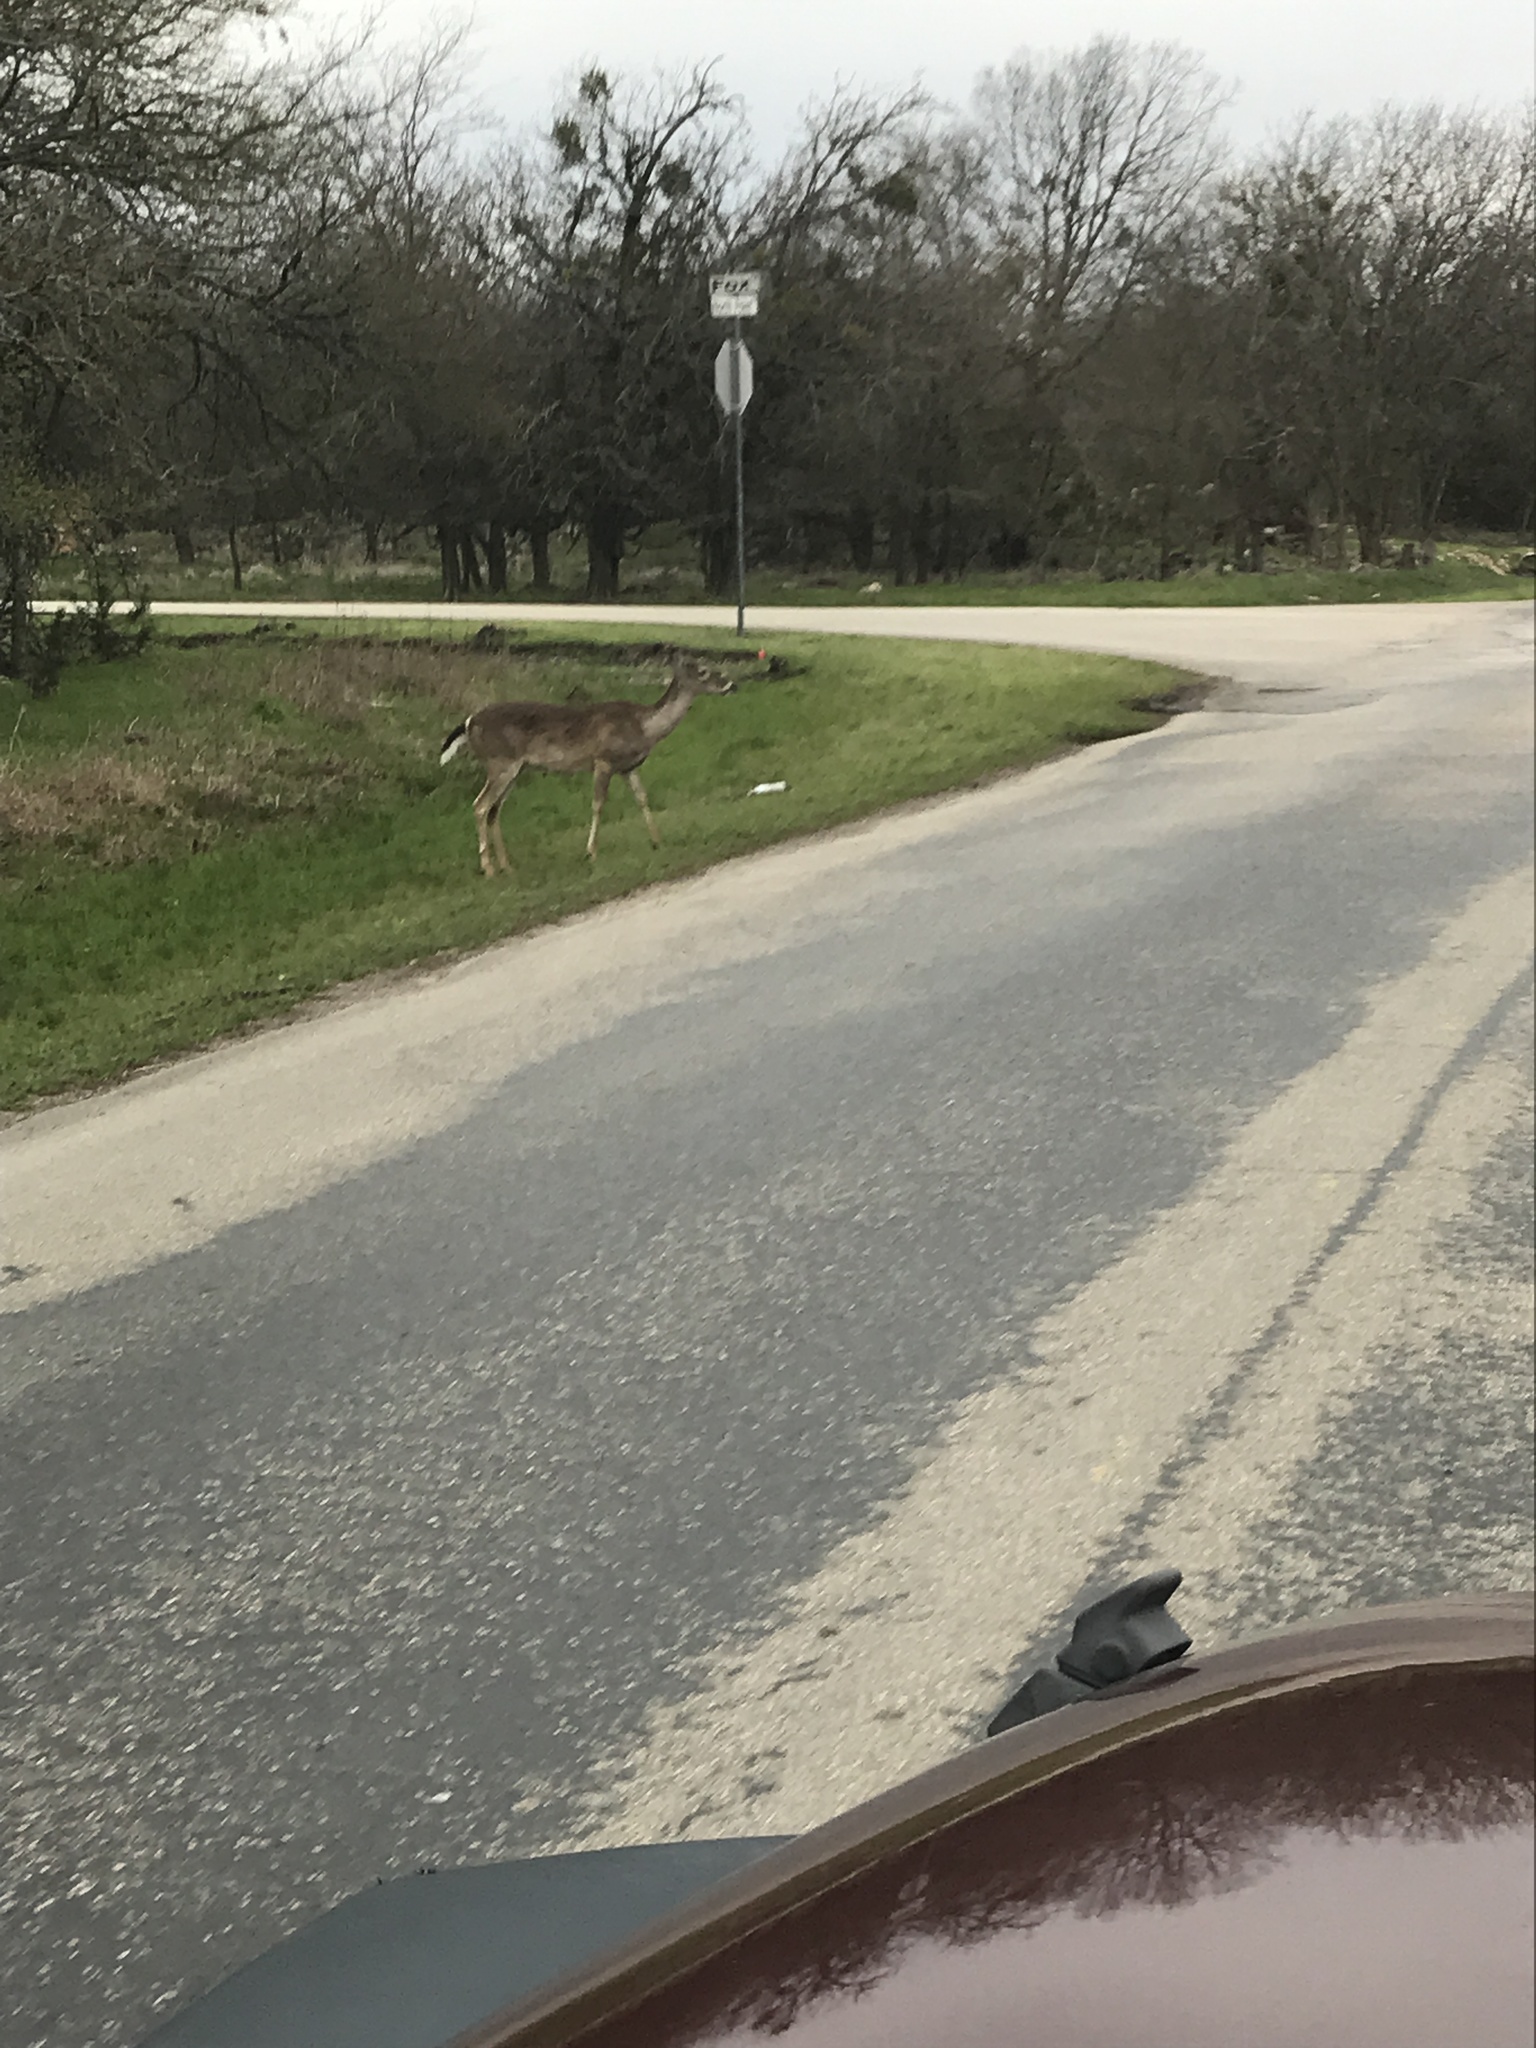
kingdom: Animalia
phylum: Chordata
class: Mammalia
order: Artiodactyla
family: Cervidae
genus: Odocoileus
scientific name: Odocoileus virginianus
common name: White-tailed deer
